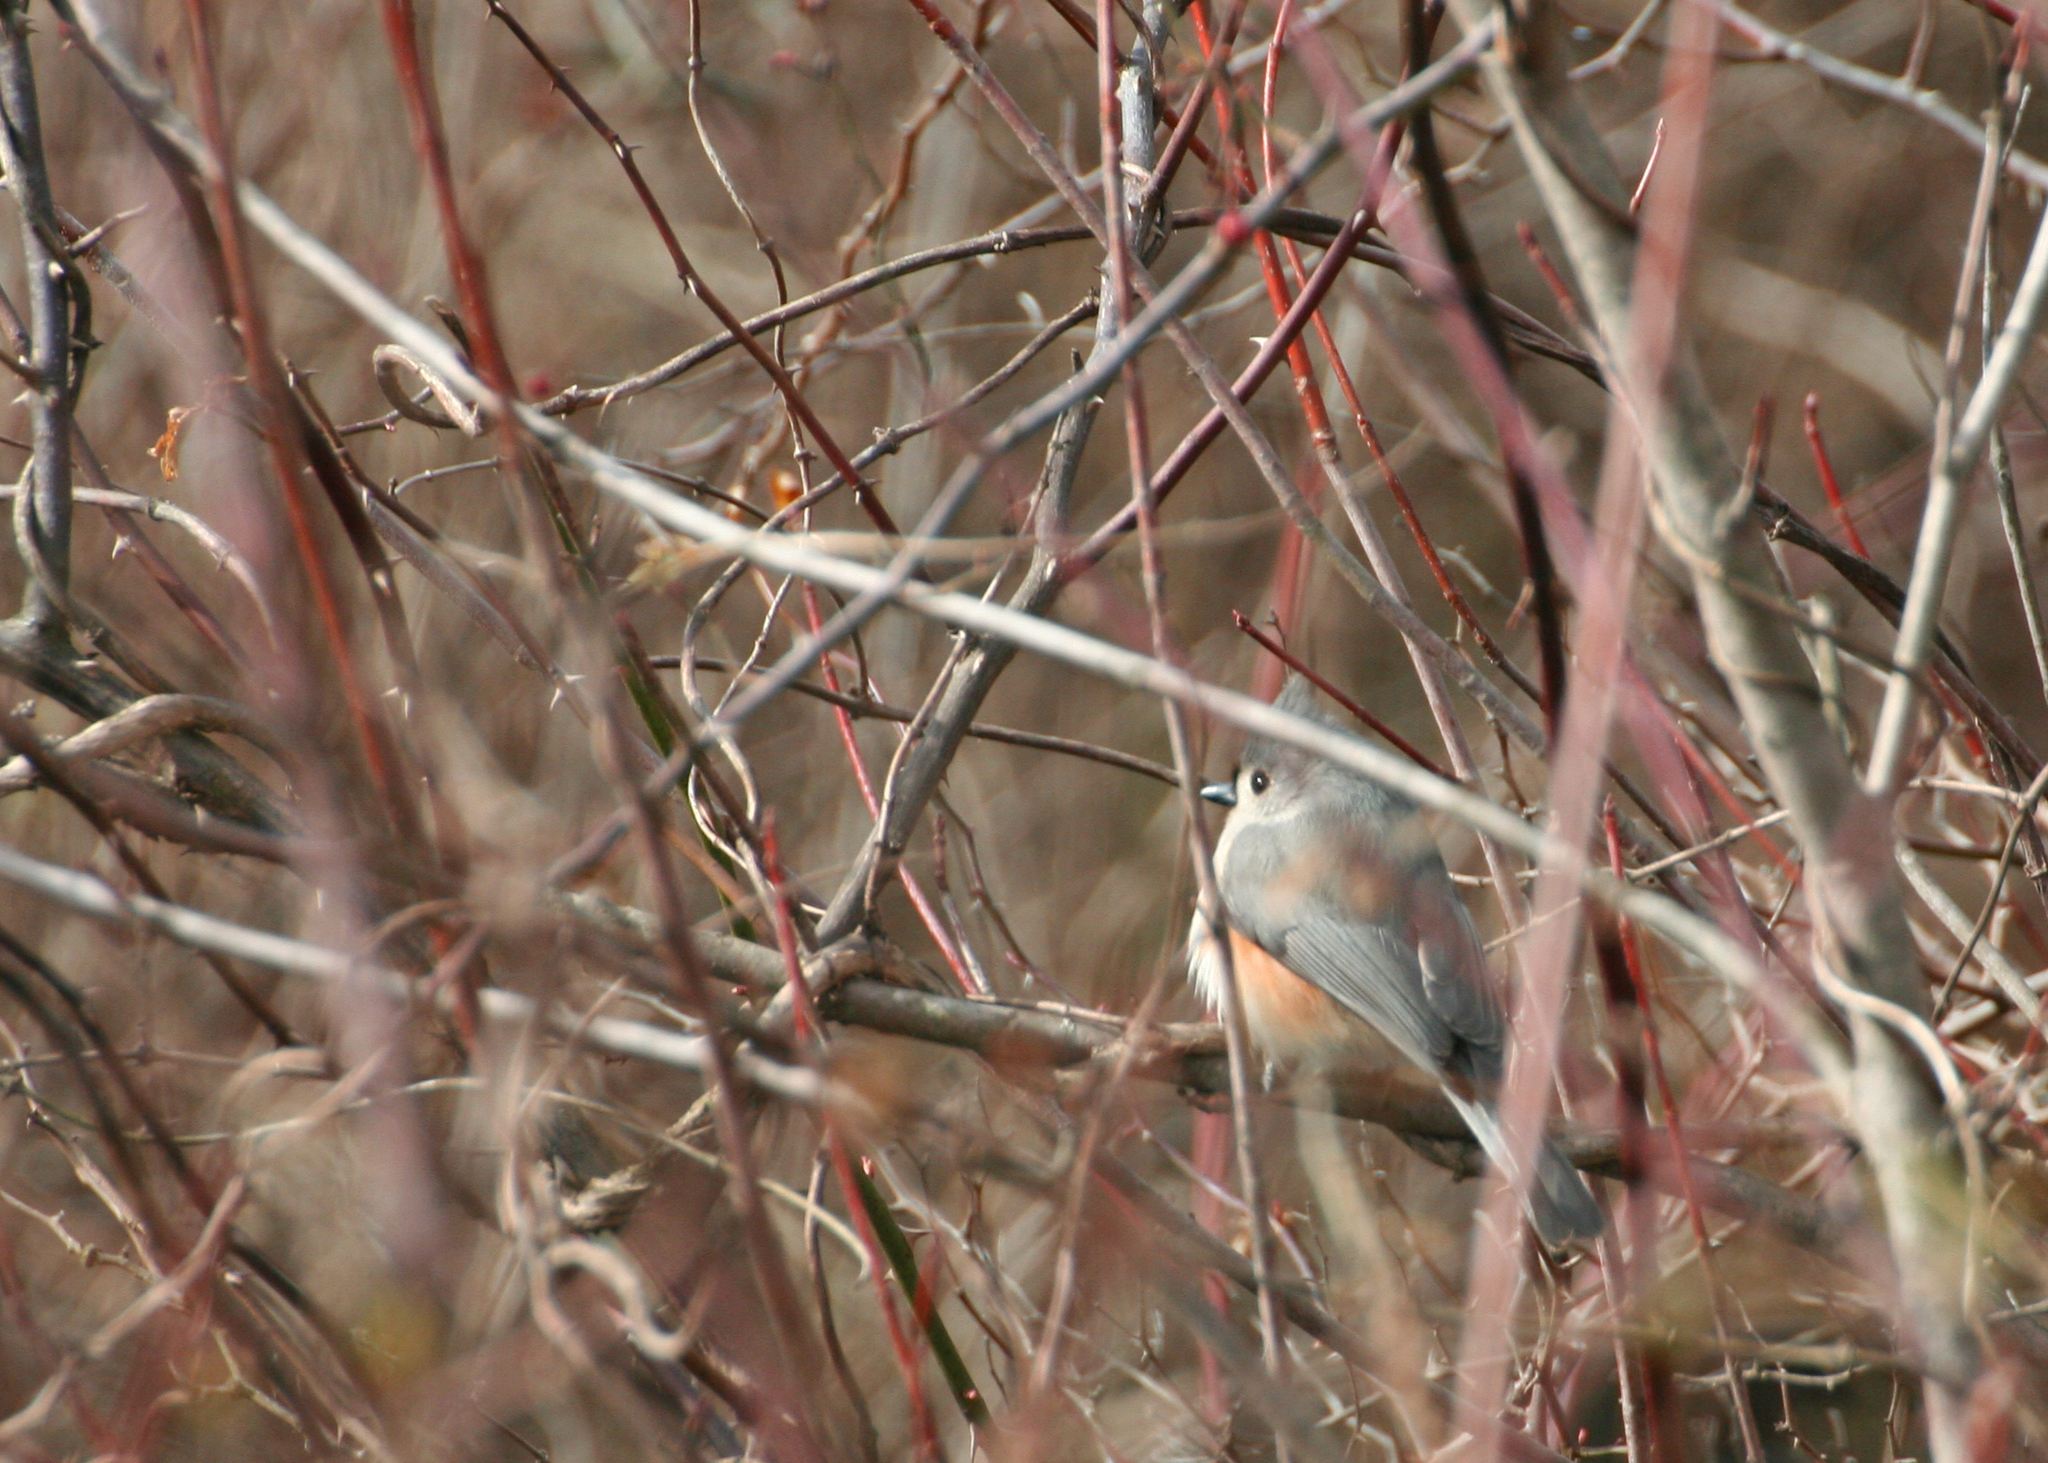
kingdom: Animalia
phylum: Chordata
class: Aves
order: Passeriformes
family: Paridae
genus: Baeolophus
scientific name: Baeolophus bicolor
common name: Tufted titmouse
